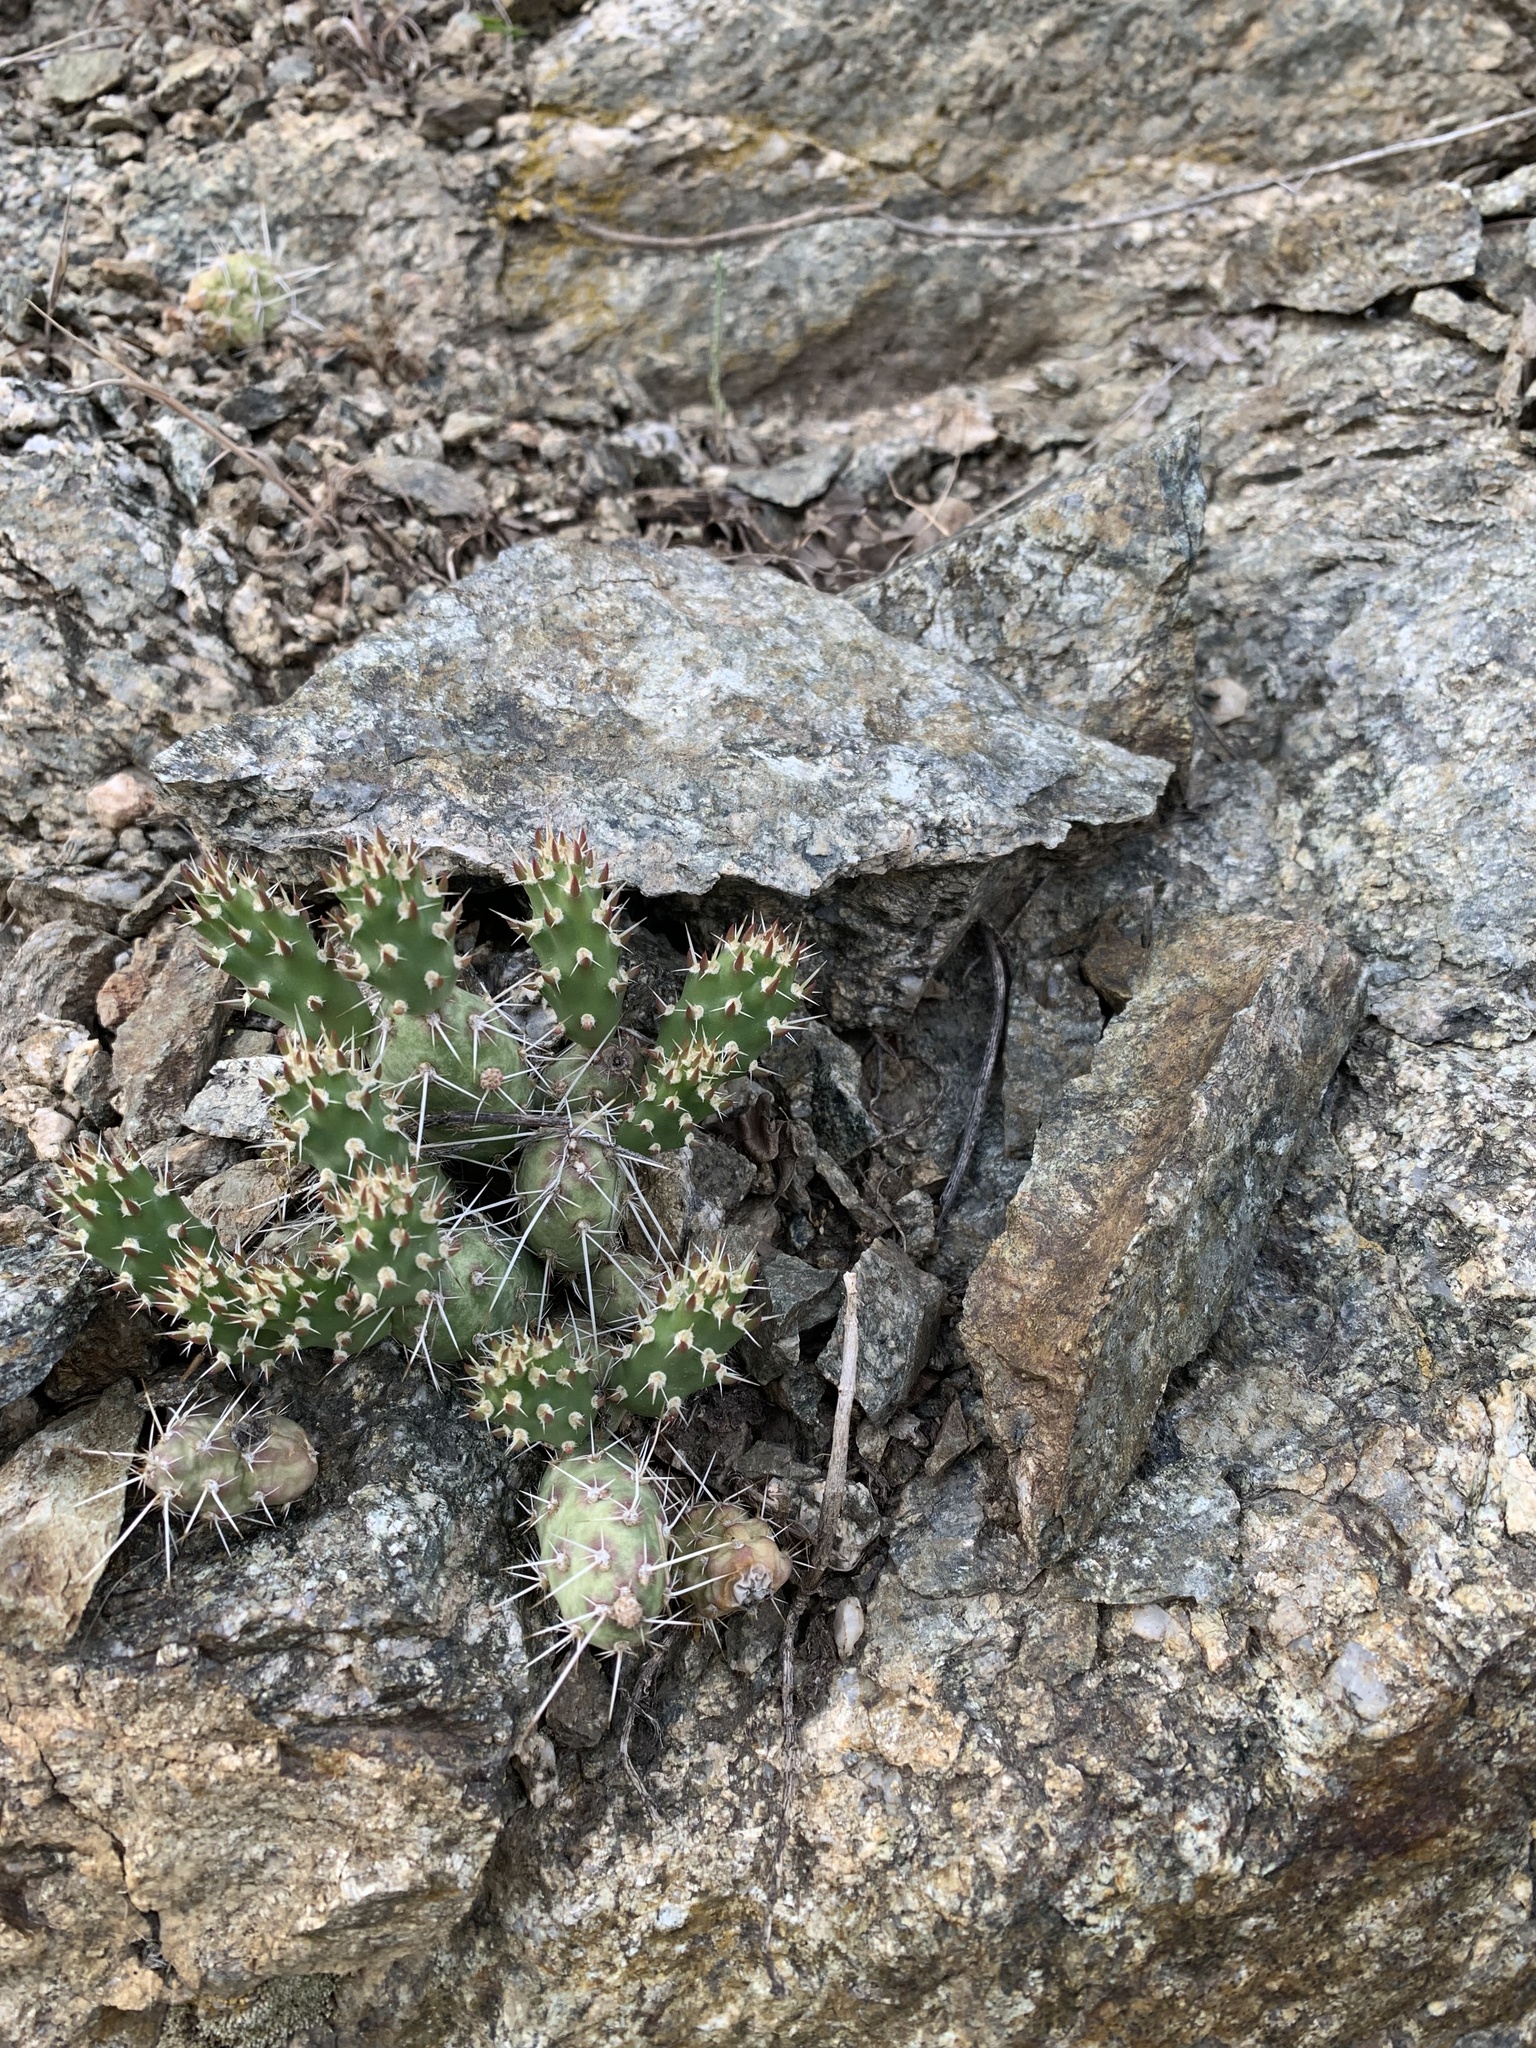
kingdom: Plantae
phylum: Tracheophyta
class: Magnoliopsida
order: Caryophyllales
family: Cactaceae
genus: Opuntia
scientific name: Opuntia fragilis
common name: Brittle cactus
